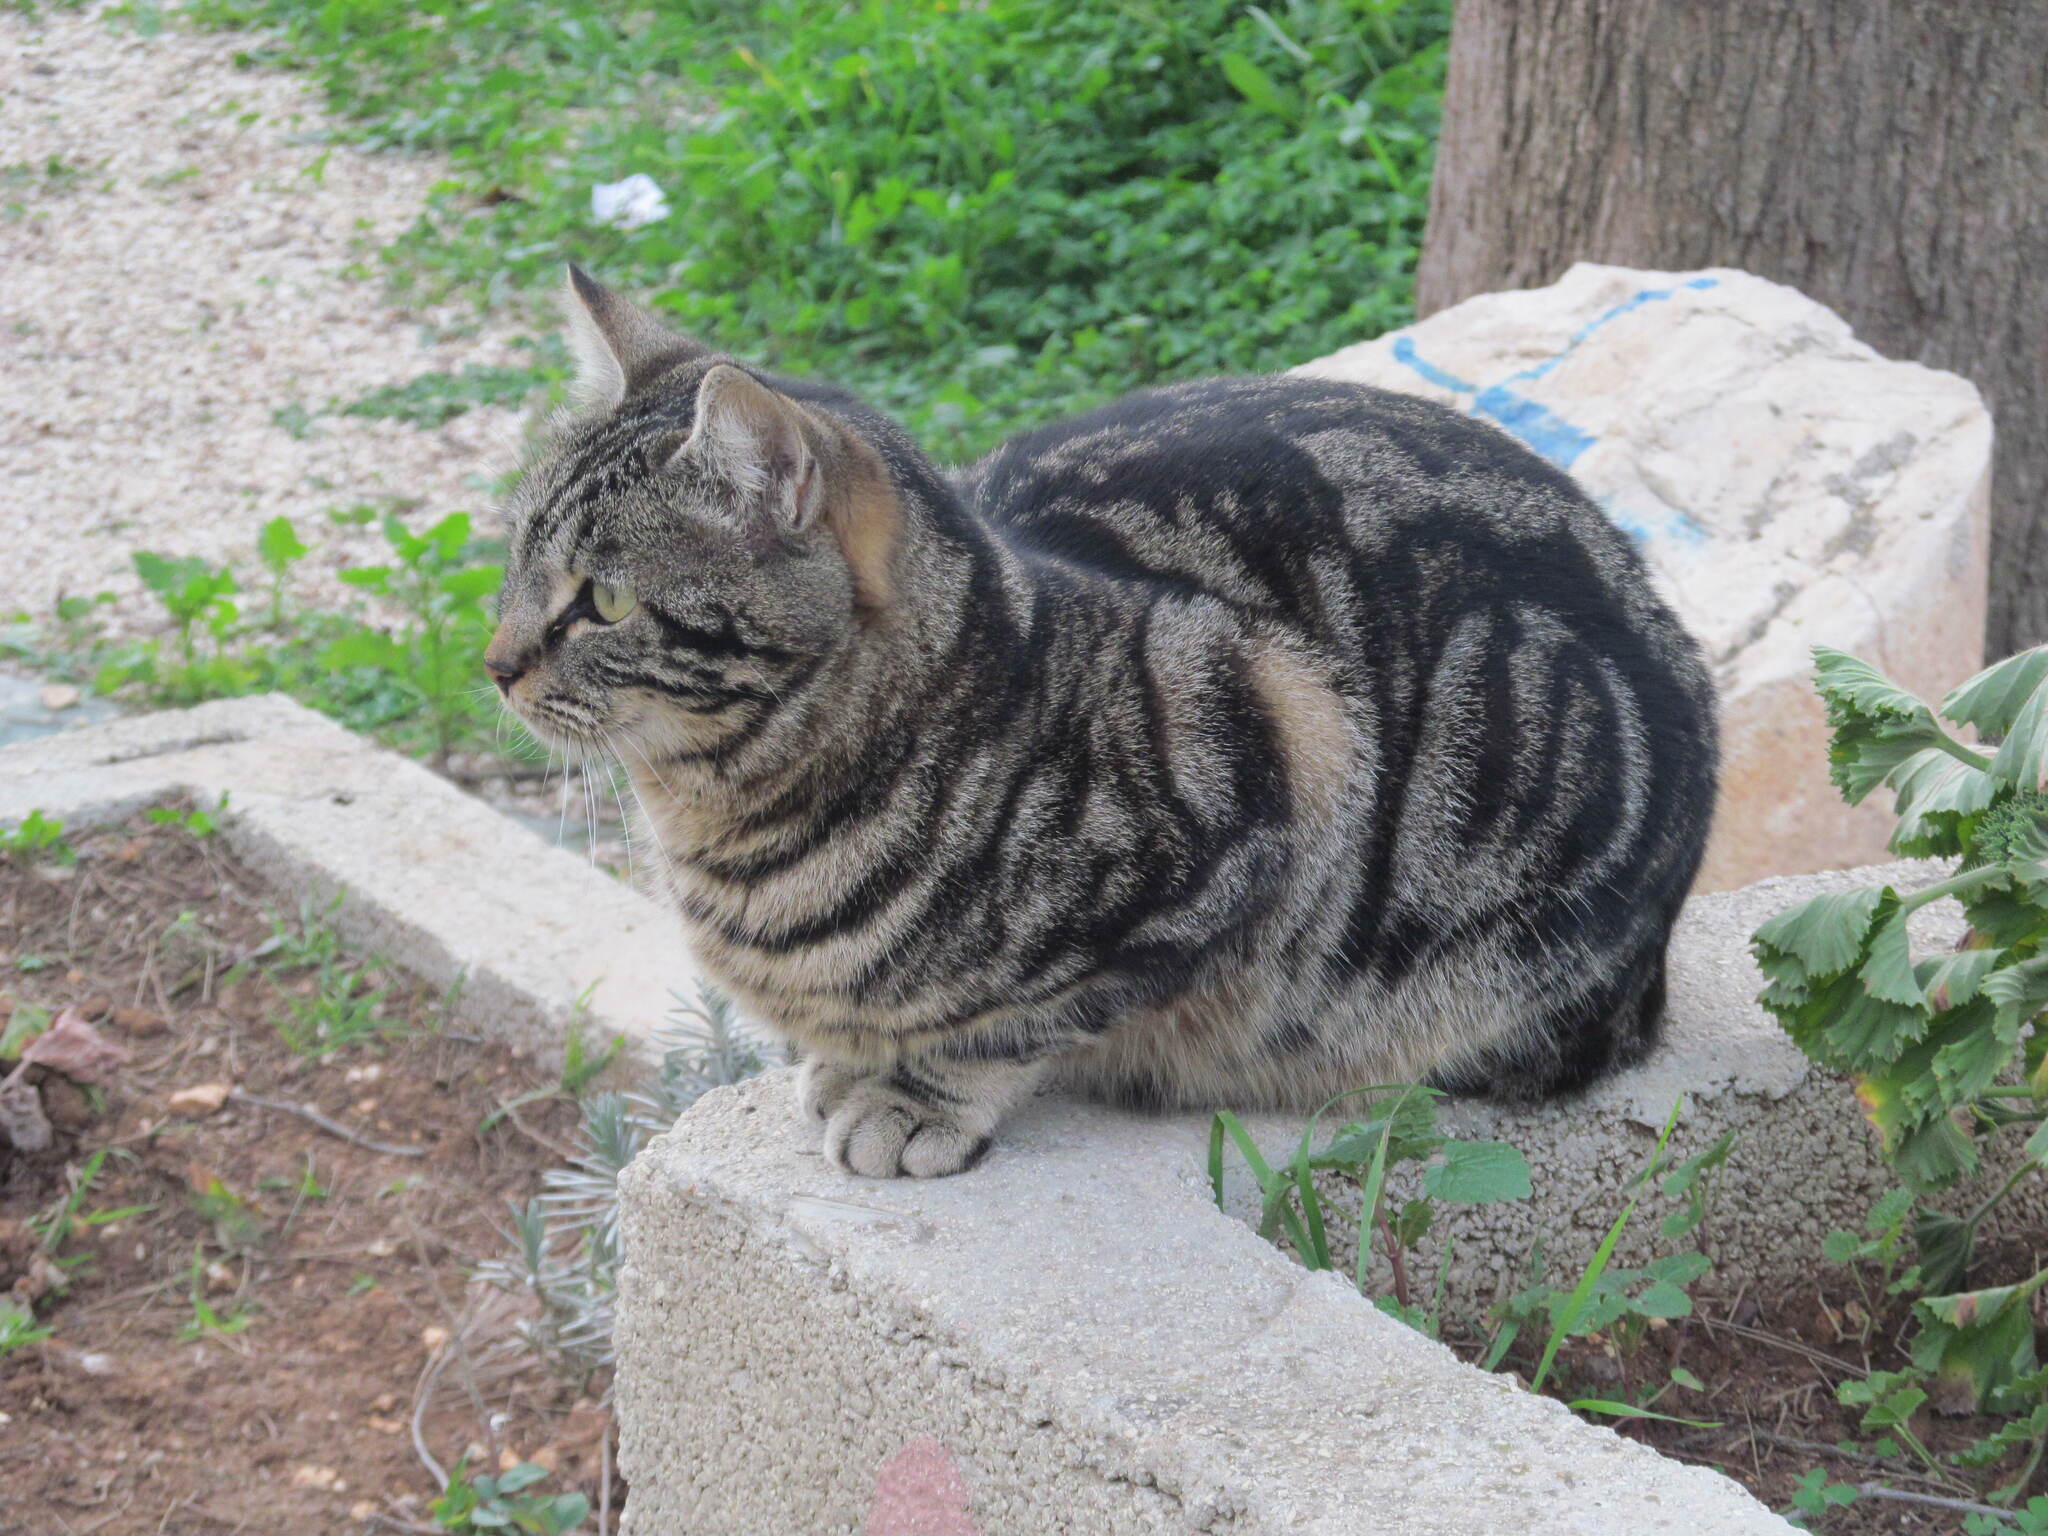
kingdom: Animalia
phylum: Chordata
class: Mammalia
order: Carnivora
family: Felidae
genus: Felis
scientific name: Felis catus
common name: Domestic cat
